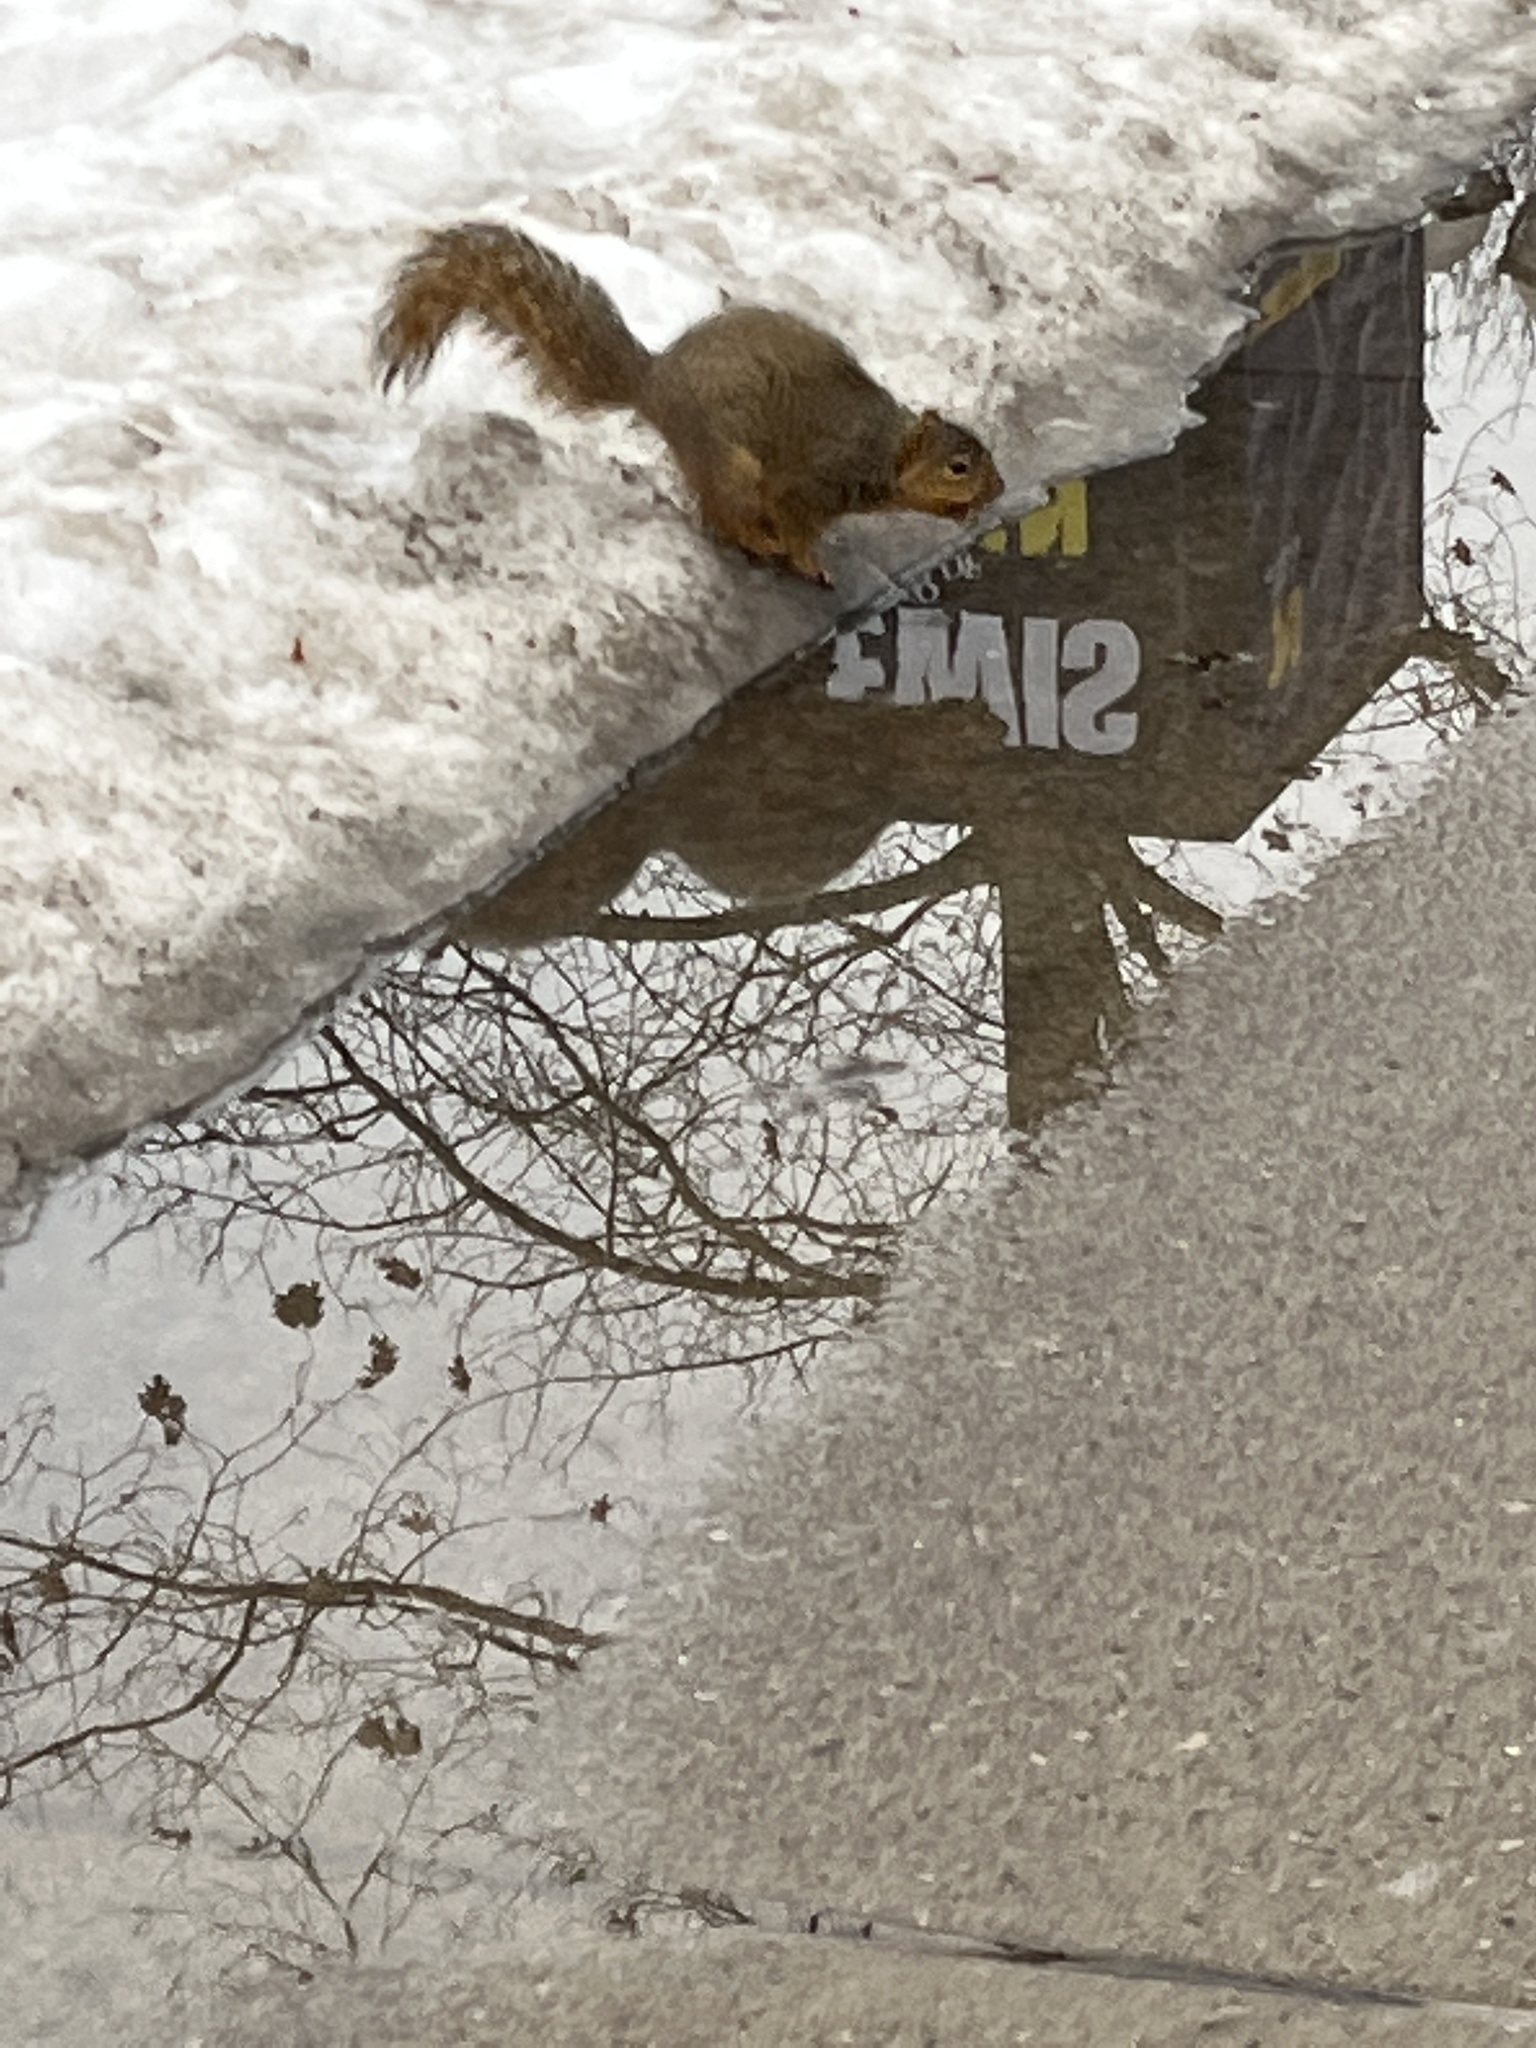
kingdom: Animalia
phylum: Chordata
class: Mammalia
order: Rodentia
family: Sciuridae
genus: Sciurus
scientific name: Sciurus niger
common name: Fox squirrel
